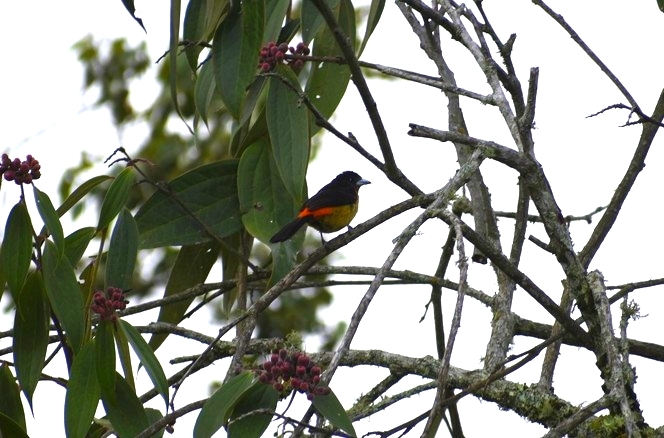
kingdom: Animalia
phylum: Chordata
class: Aves
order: Passeriformes
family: Thraupidae
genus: Ramphocelus
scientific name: Ramphocelus flammigerus
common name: Flame-rumped tanager
